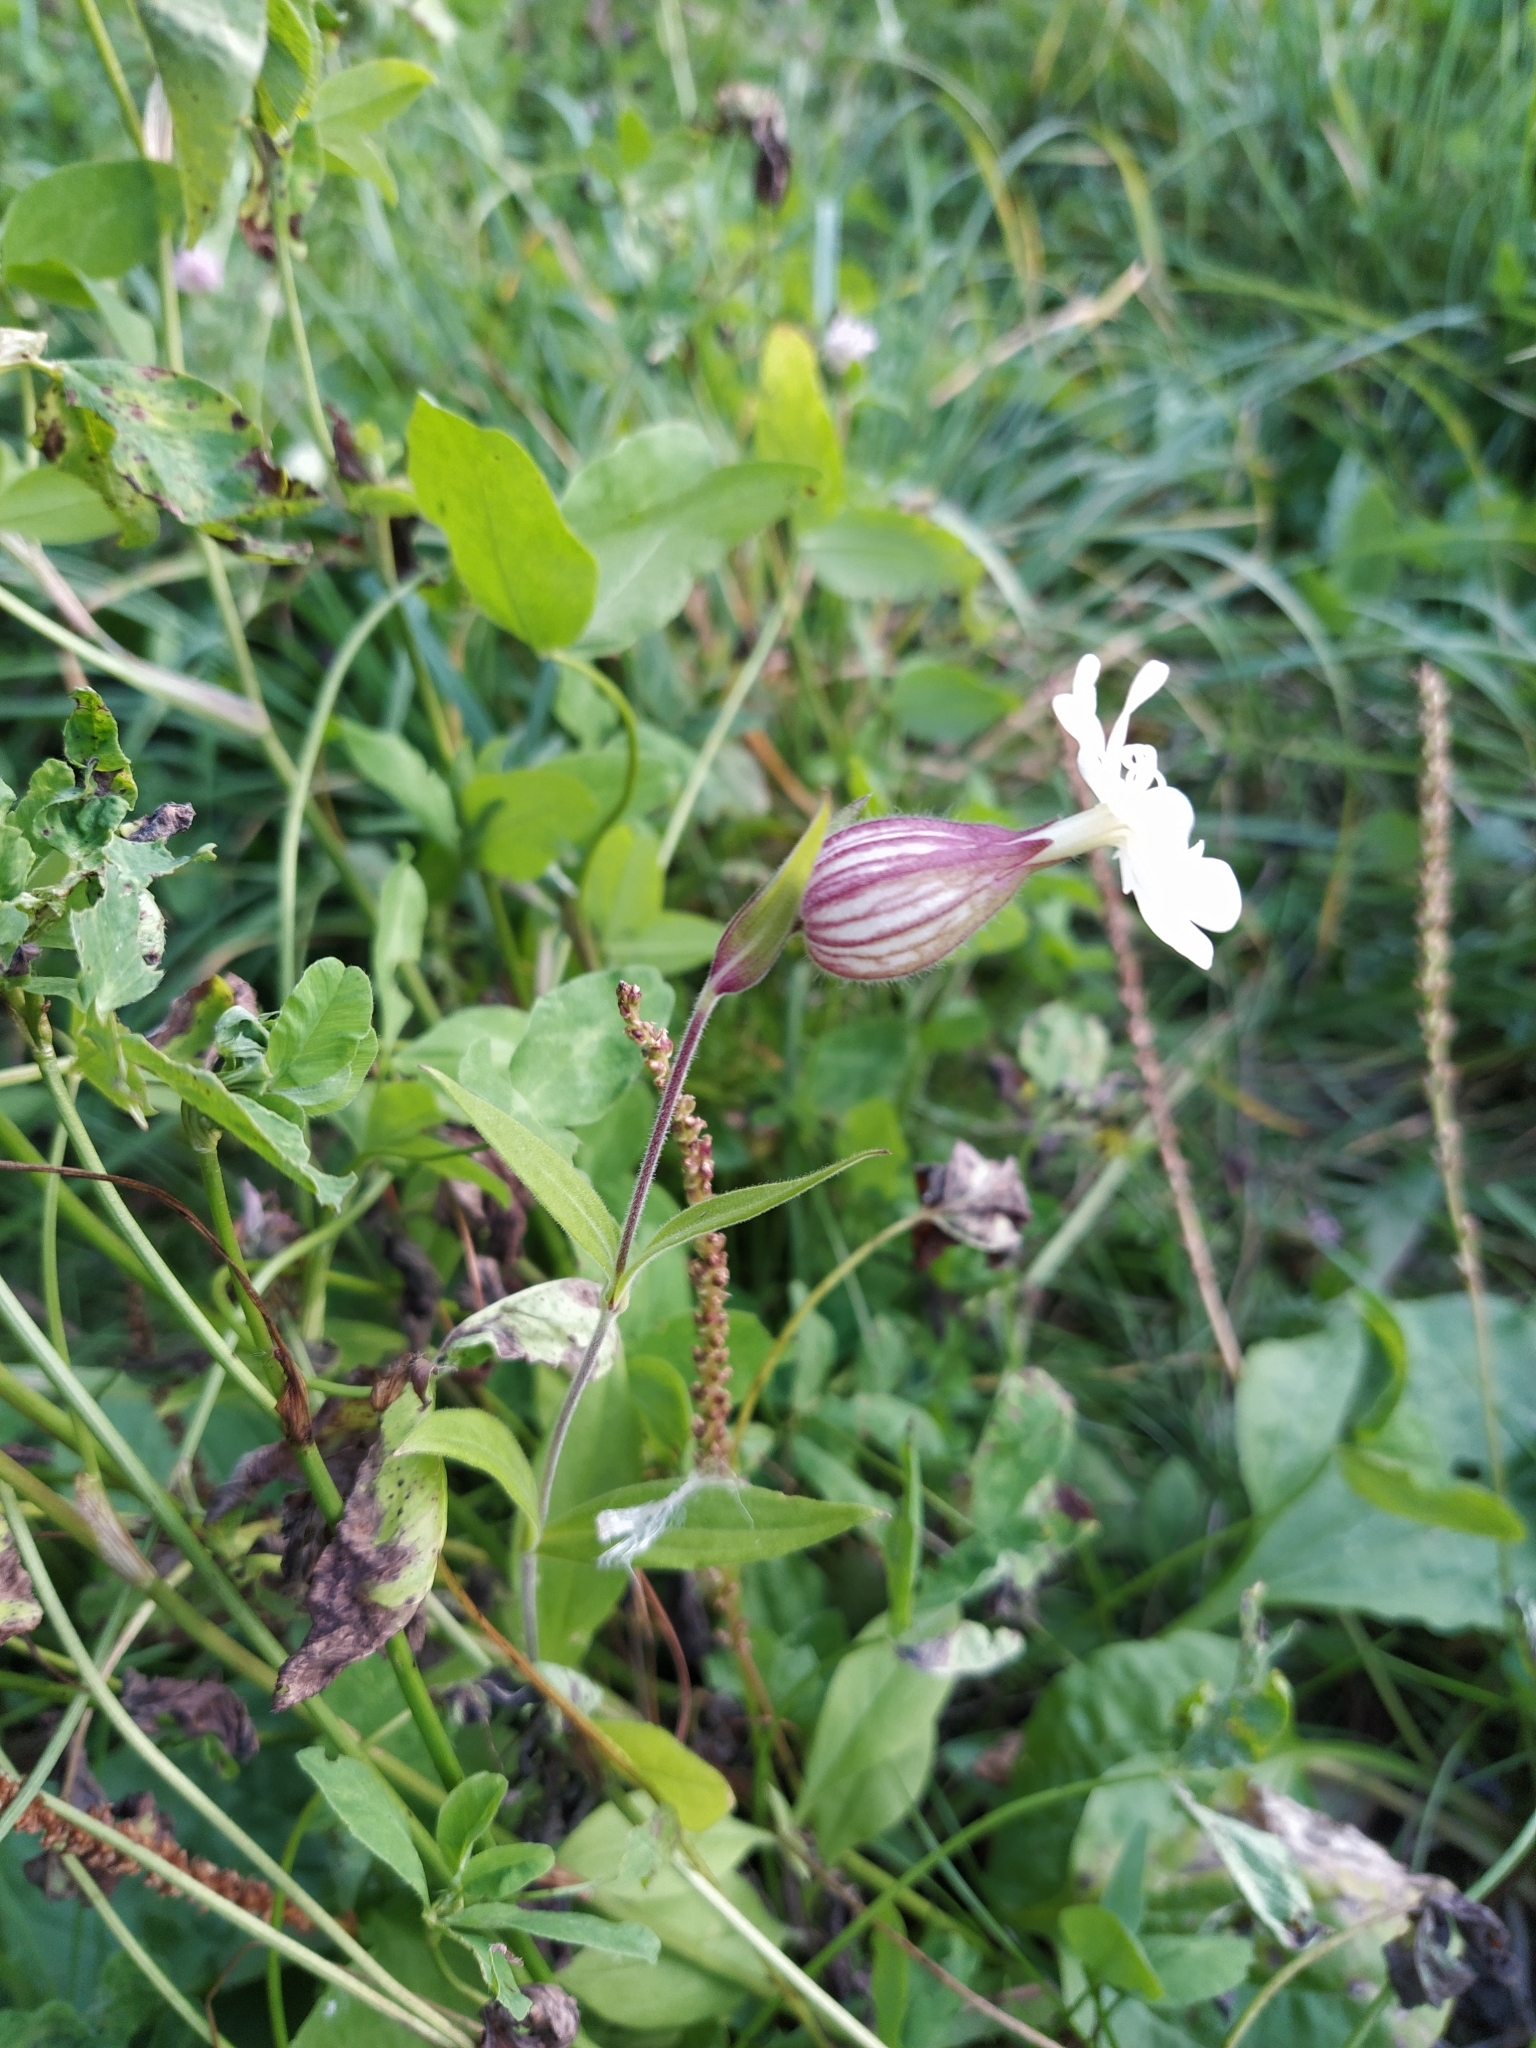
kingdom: Plantae
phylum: Tracheophyta
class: Magnoliopsida
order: Caryophyllales
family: Caryophyllaceae
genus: Silene
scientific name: Silene latifolia
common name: White campion
